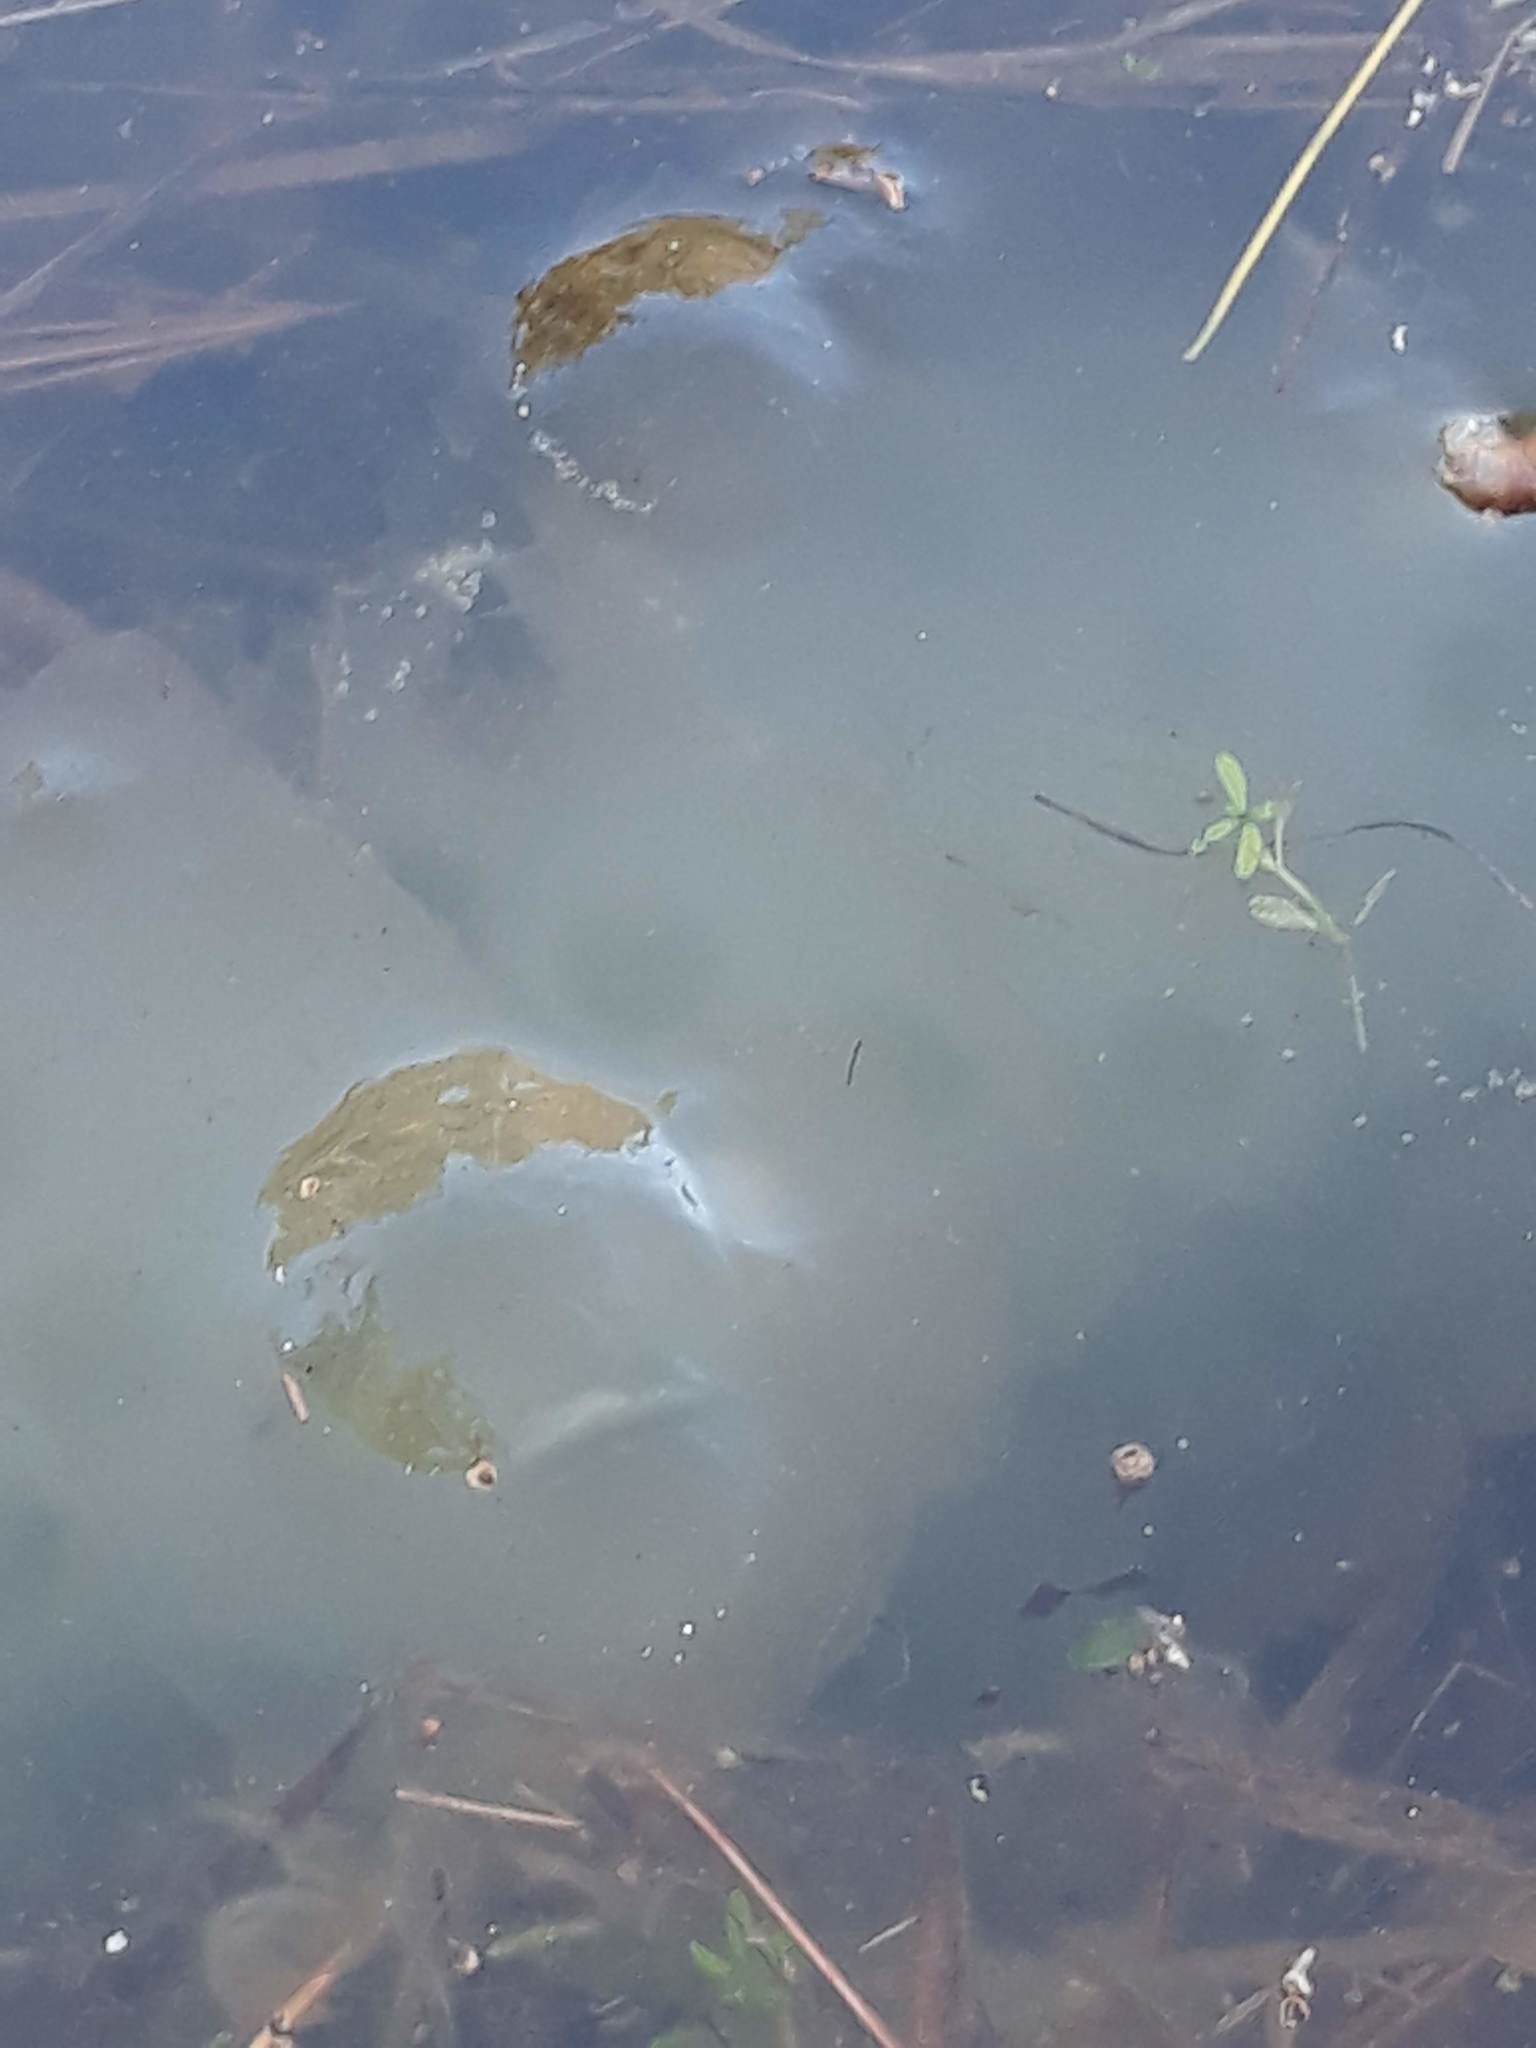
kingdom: Animalia
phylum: Chordata
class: Amphibia
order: Caudata
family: Ambystomatidae
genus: Ambystoma
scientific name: Ambystoma maculatum
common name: Spotted salamander
